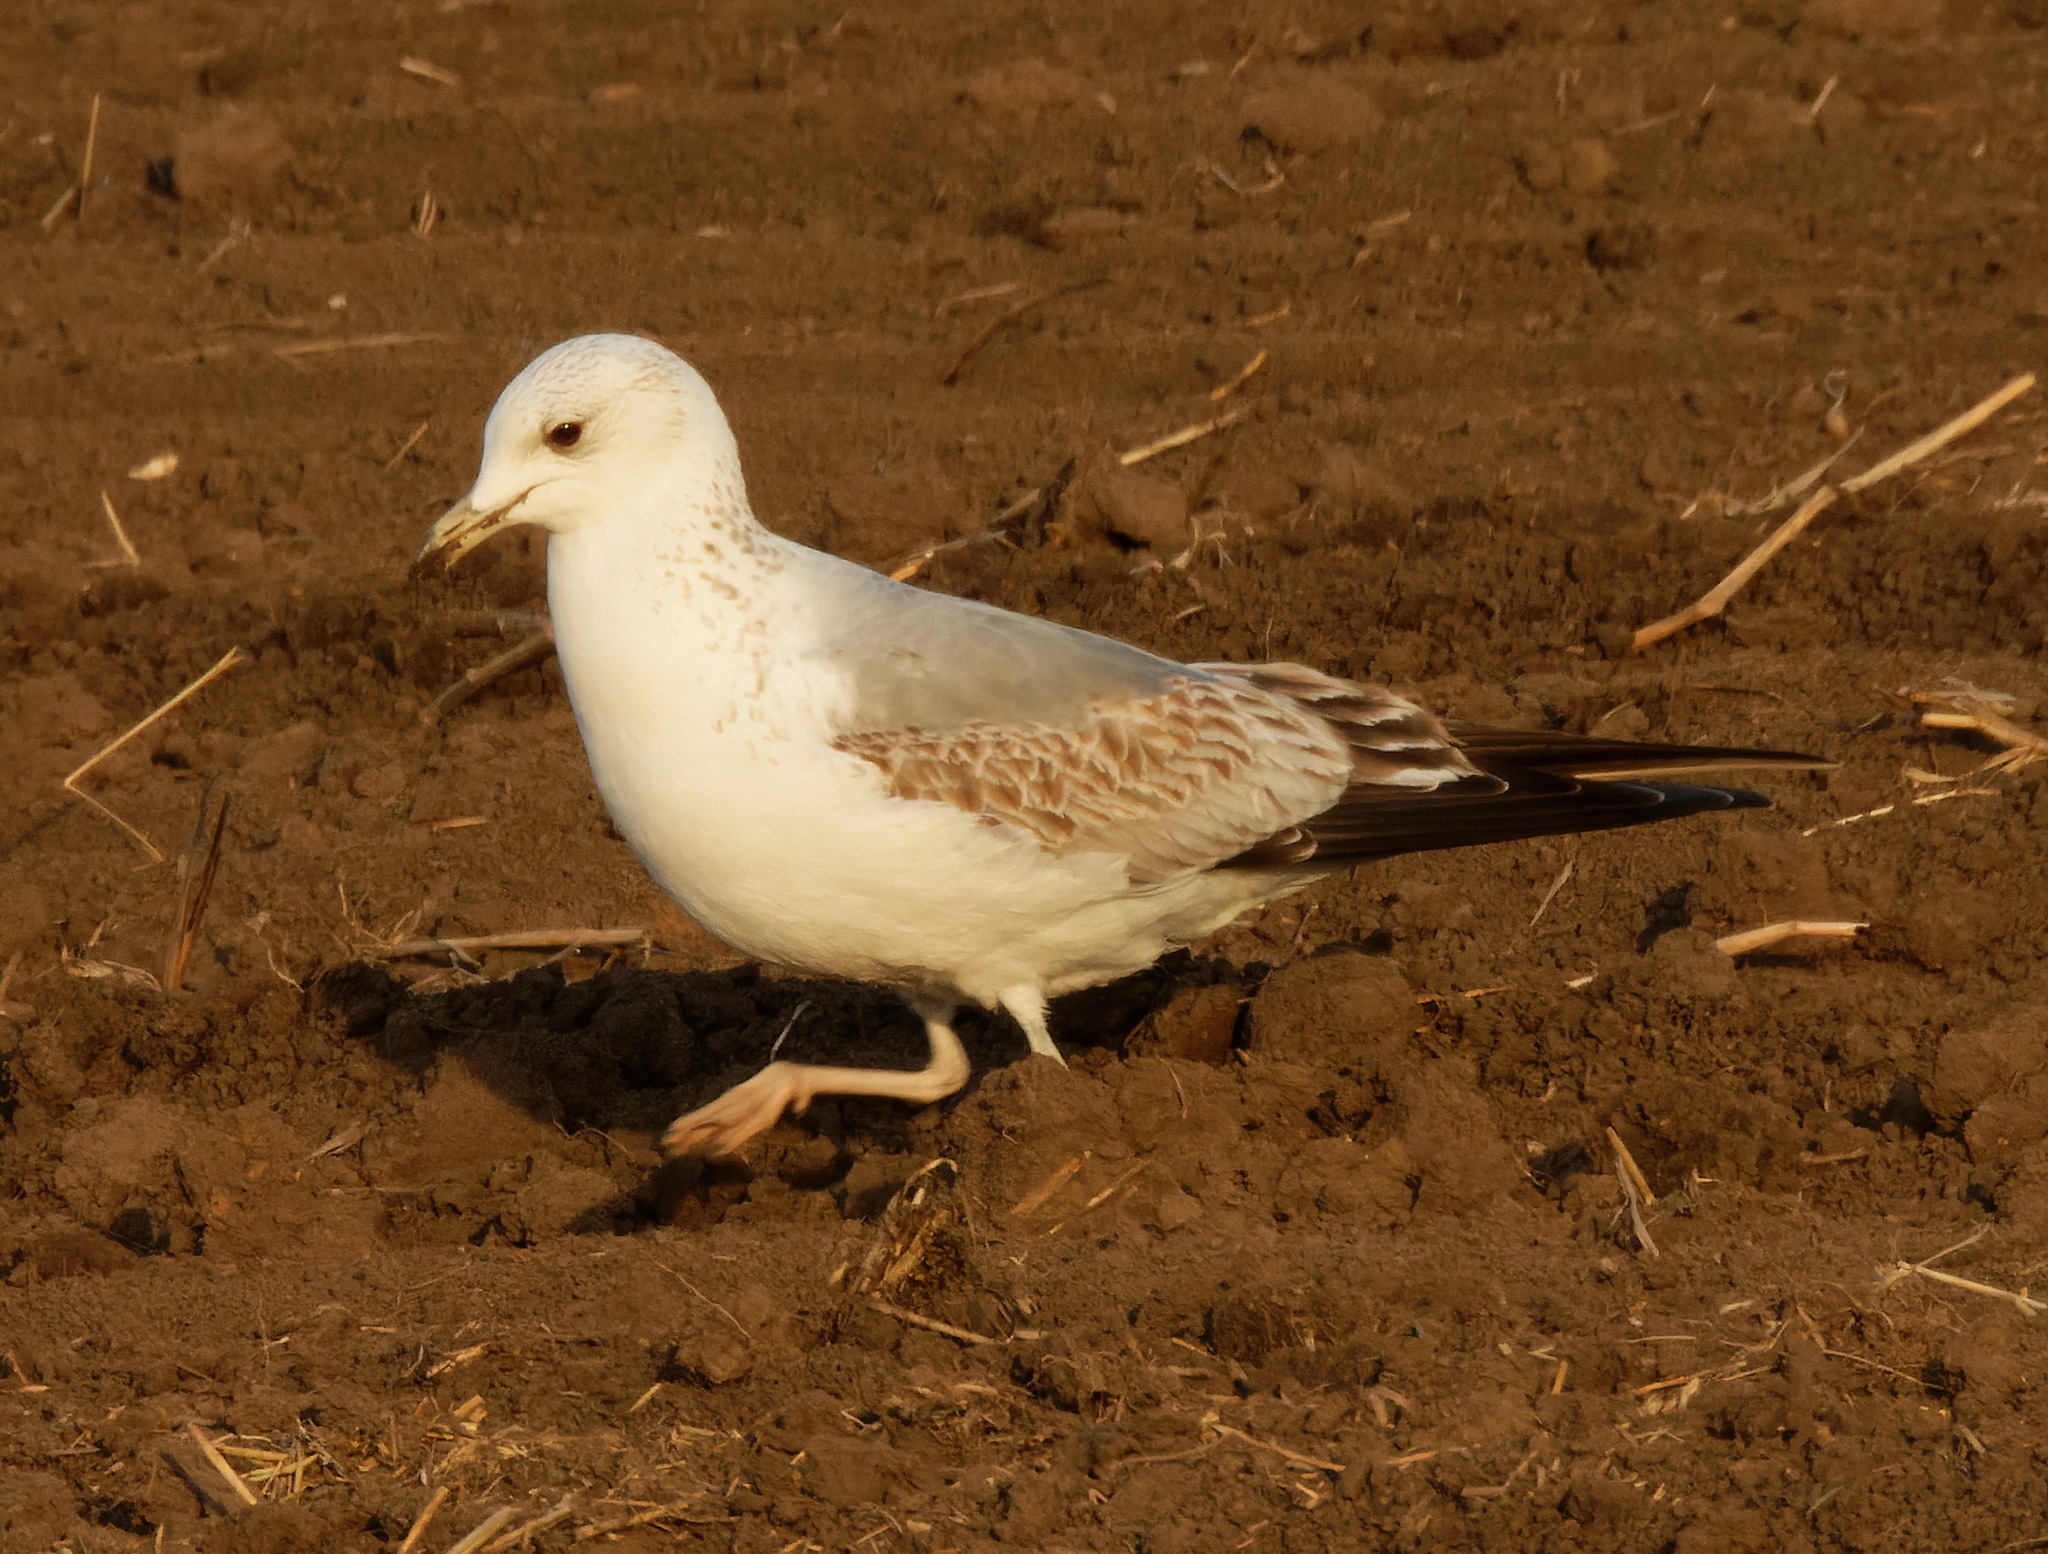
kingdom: Animalia
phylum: Chordata
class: Aves
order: Charadriiformes
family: Laridae
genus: Larus
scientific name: Larus canus
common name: Mew gull
